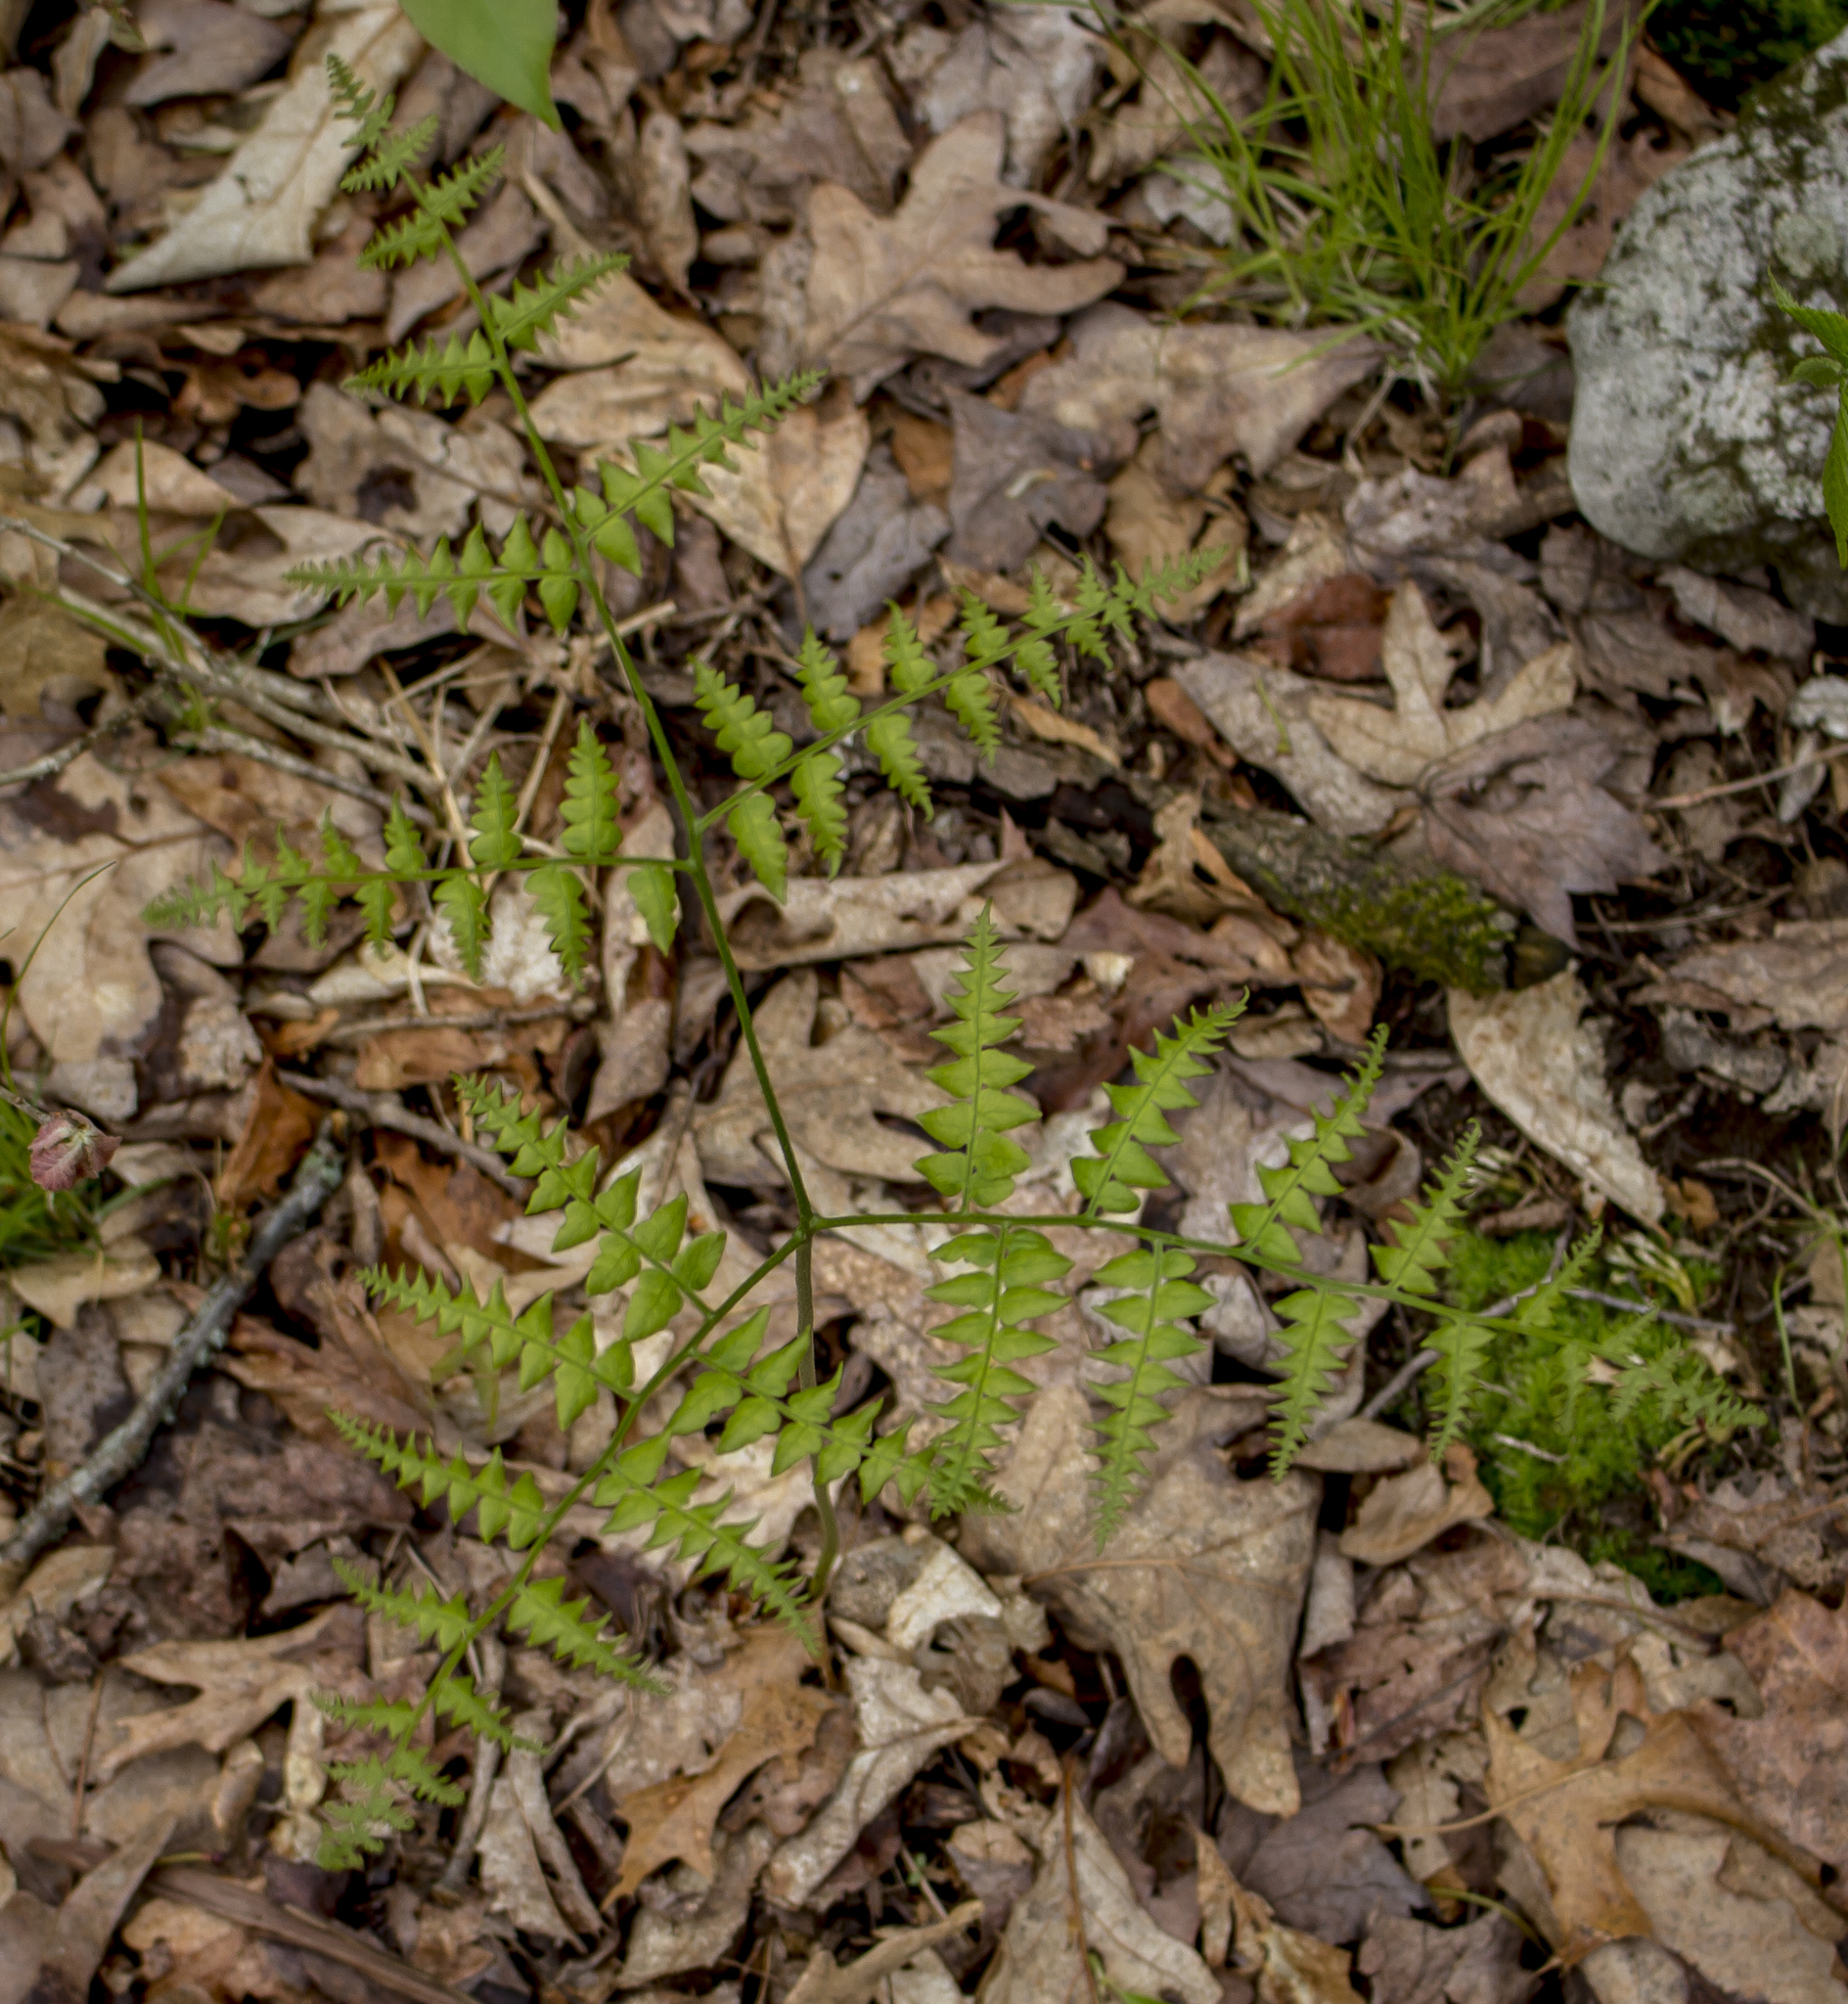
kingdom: Plantae
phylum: Tracheophyta
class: Polypodiopsida
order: Polypodiales
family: Dennstaedtiaceae
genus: Pteridium
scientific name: Pteridium aquilinum
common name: Bracken
